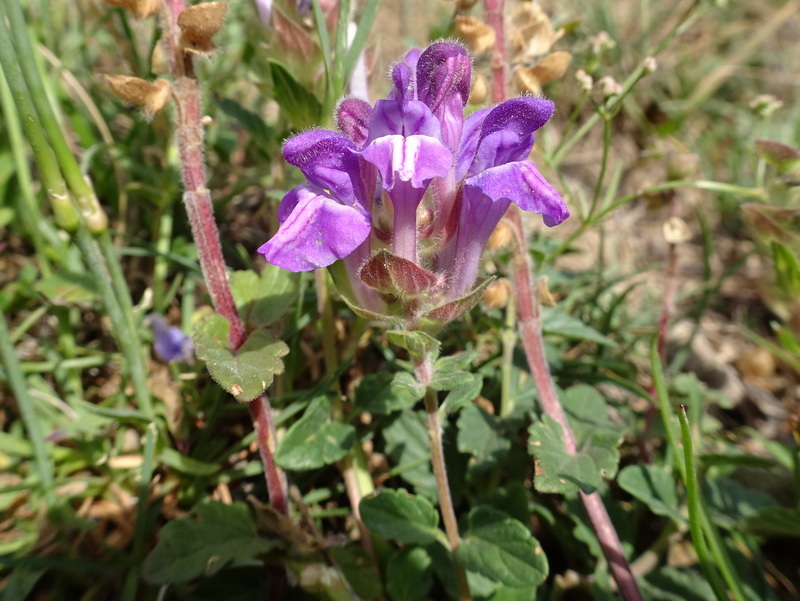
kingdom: Plantae
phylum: Tracheophyta
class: Magnoliopsida
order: Lamiales
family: Lamiaceae
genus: Scutellaria
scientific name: Scutellaria alpina
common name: Alpine scullcap
